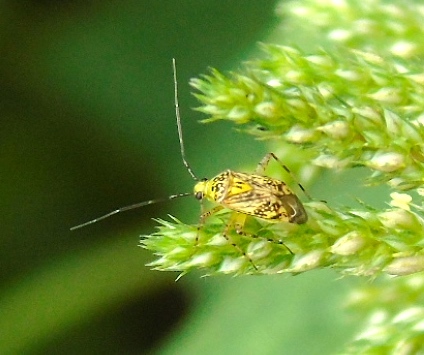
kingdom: Animalia
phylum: Arthropoda
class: Insecta
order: Hemiptera
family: Miridae
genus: Taedia
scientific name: Taedia marmorata
